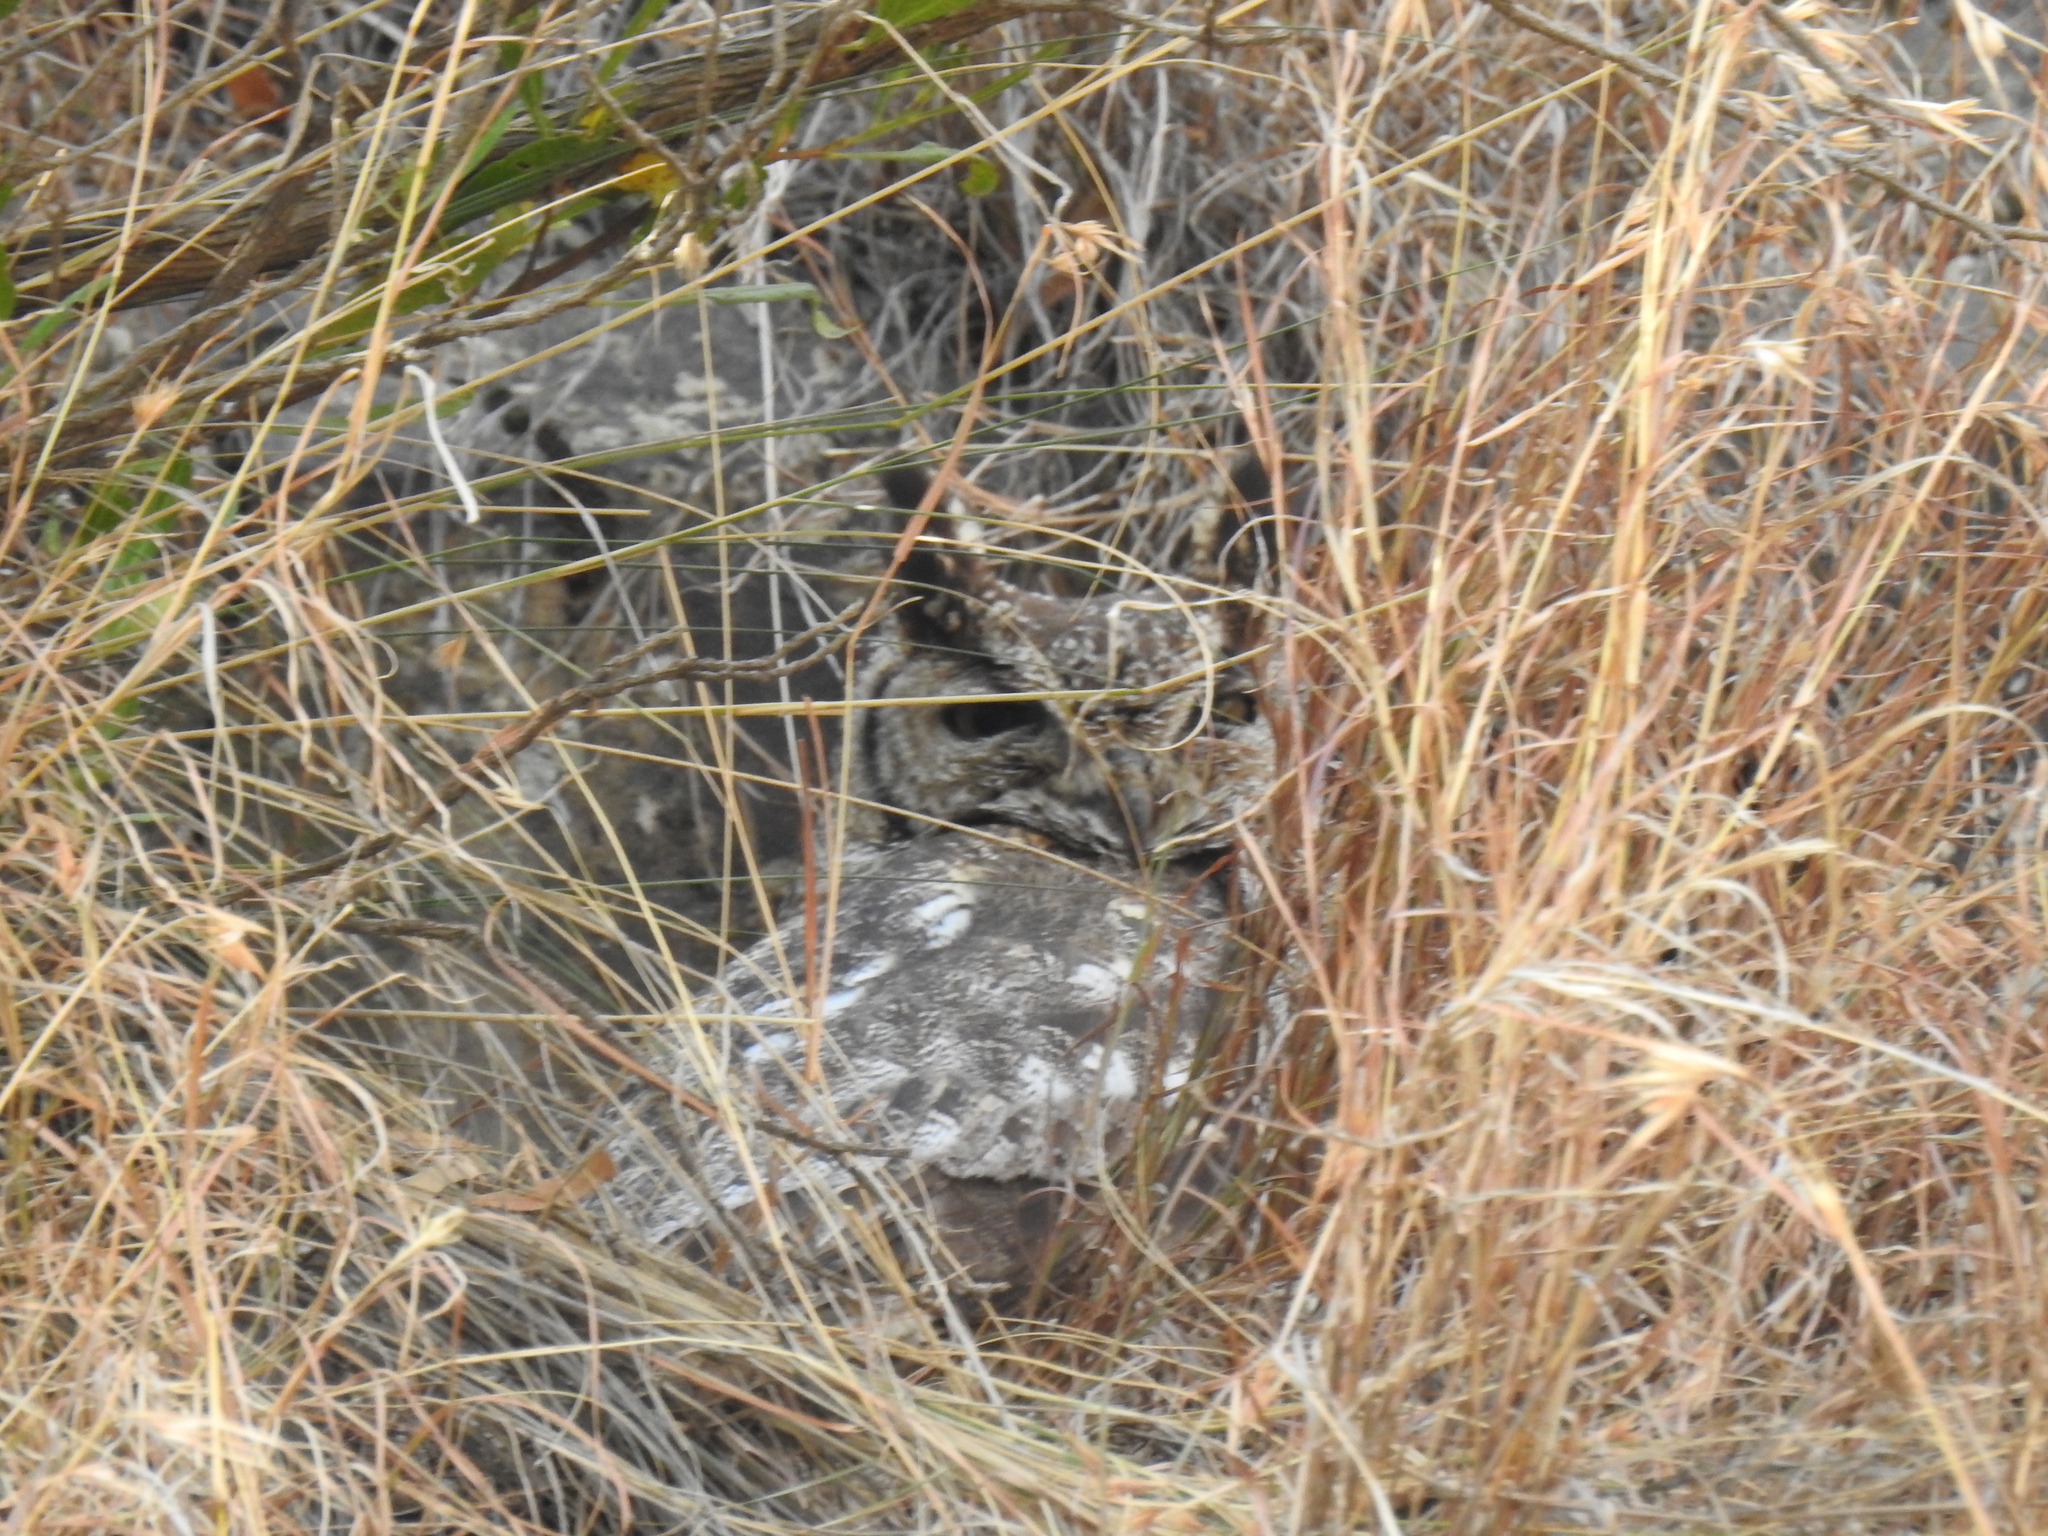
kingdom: Animalia
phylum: Chordata
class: Aves
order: Strigiformes
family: Strigidae
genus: Bubo
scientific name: Bubo africanus
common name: Spotted eagle-owl
